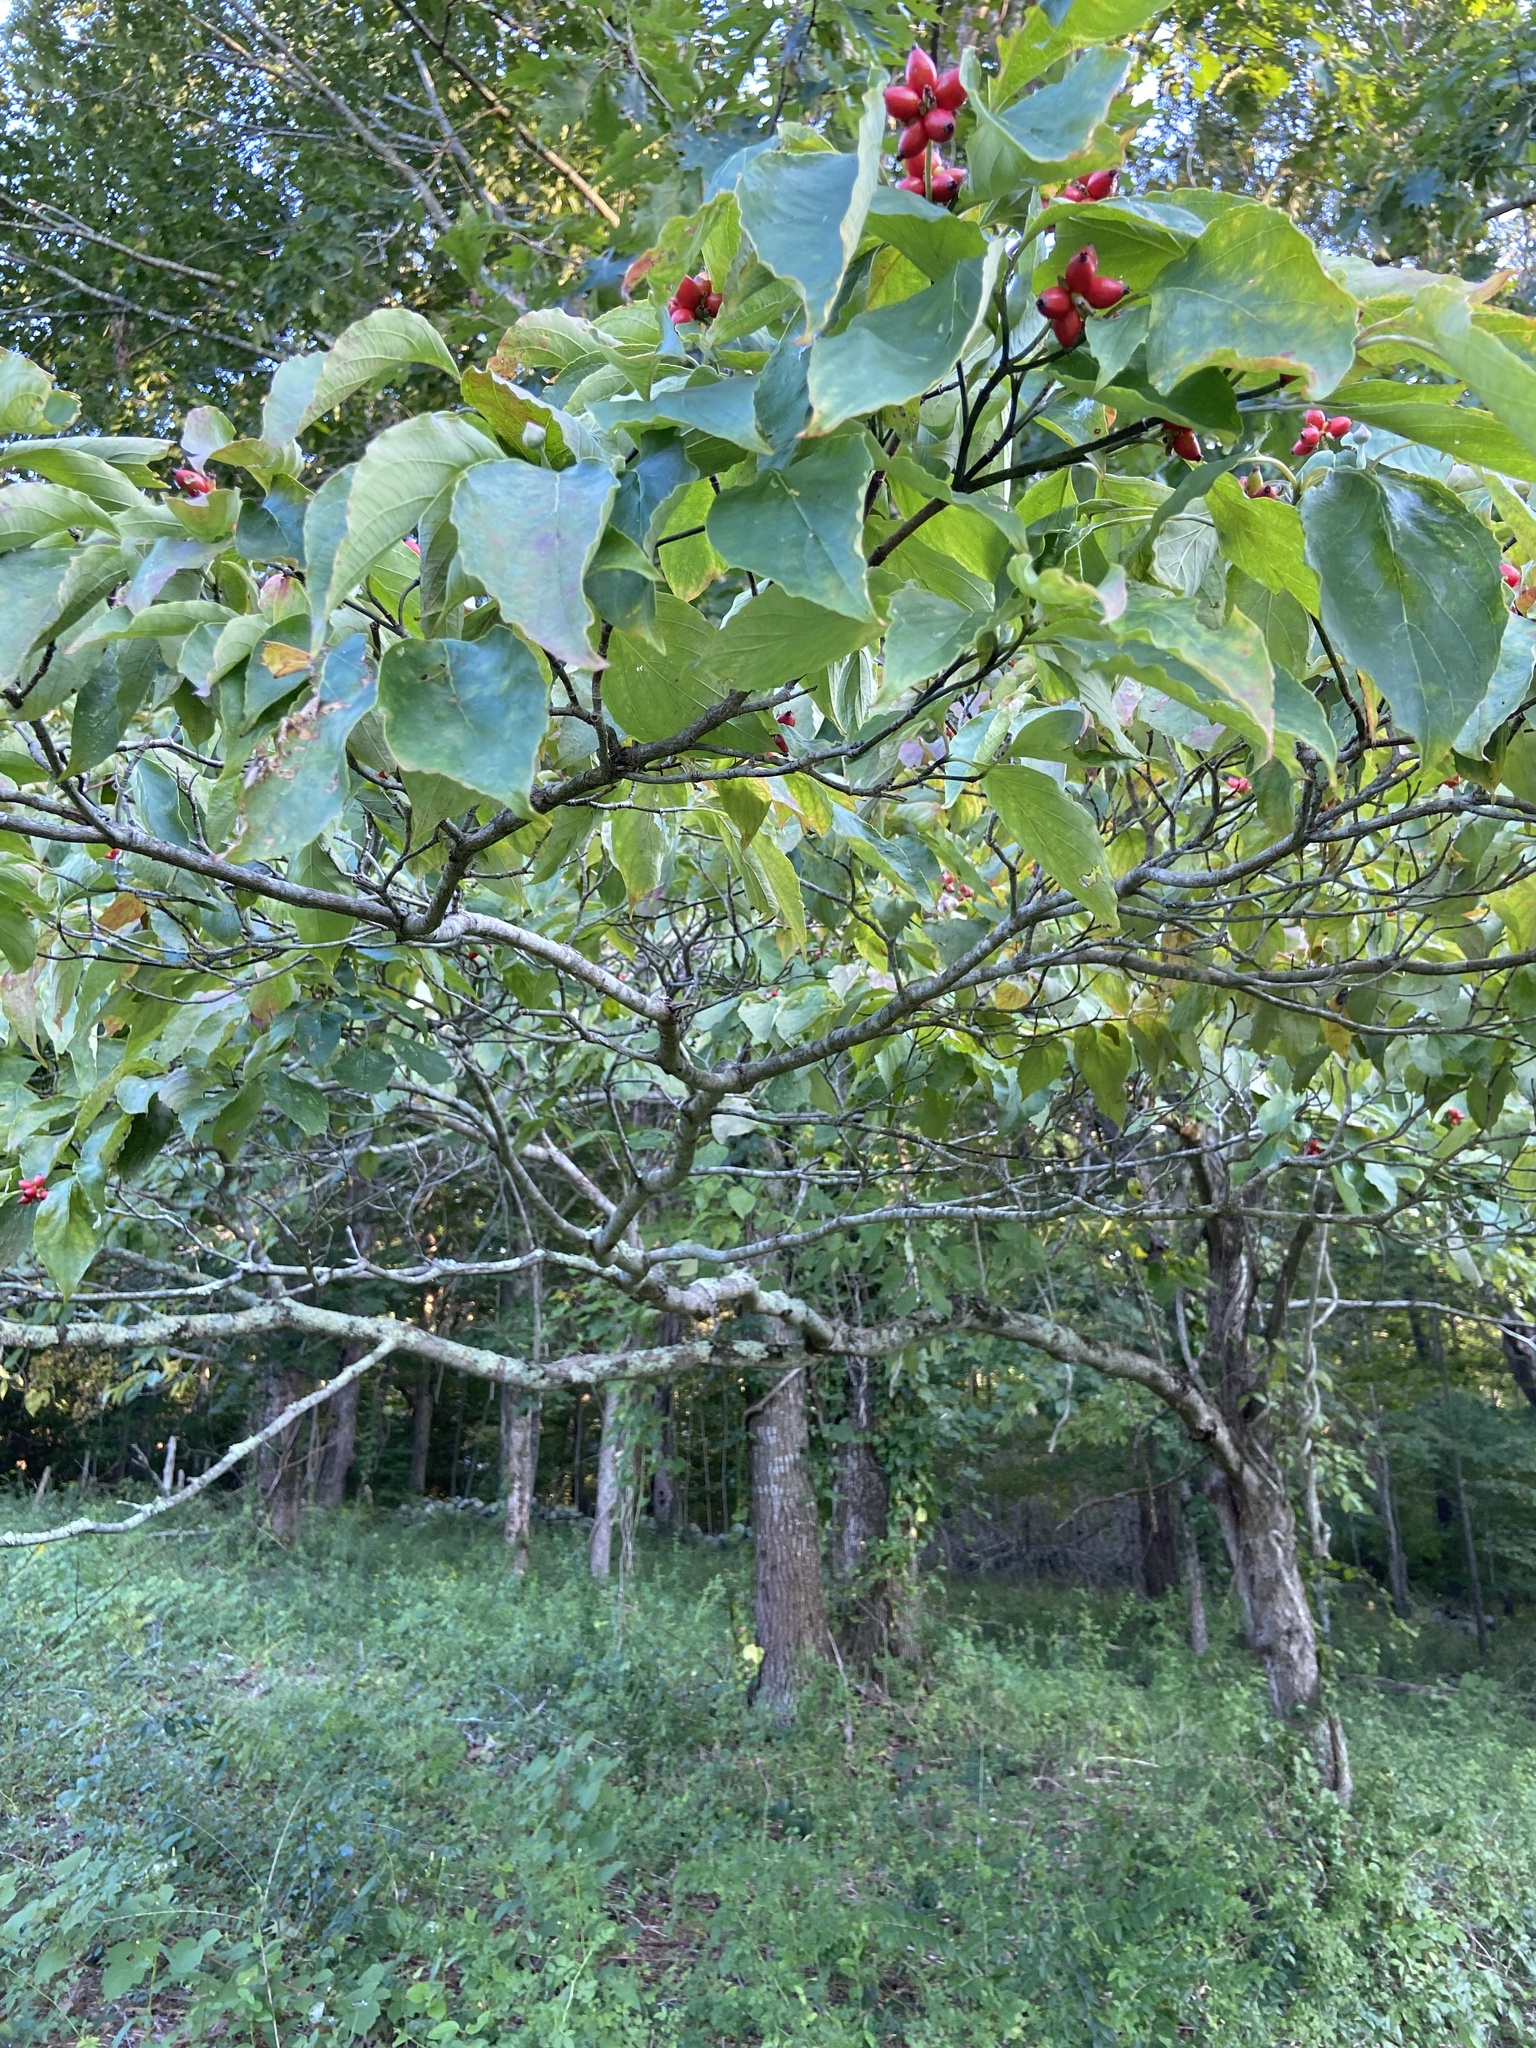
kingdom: Plantae
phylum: Tracheophyta
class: Magnoliopsida
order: Cornales
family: Cornaceae
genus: Cornus
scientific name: Cornus florida
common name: Flowering dogwood
